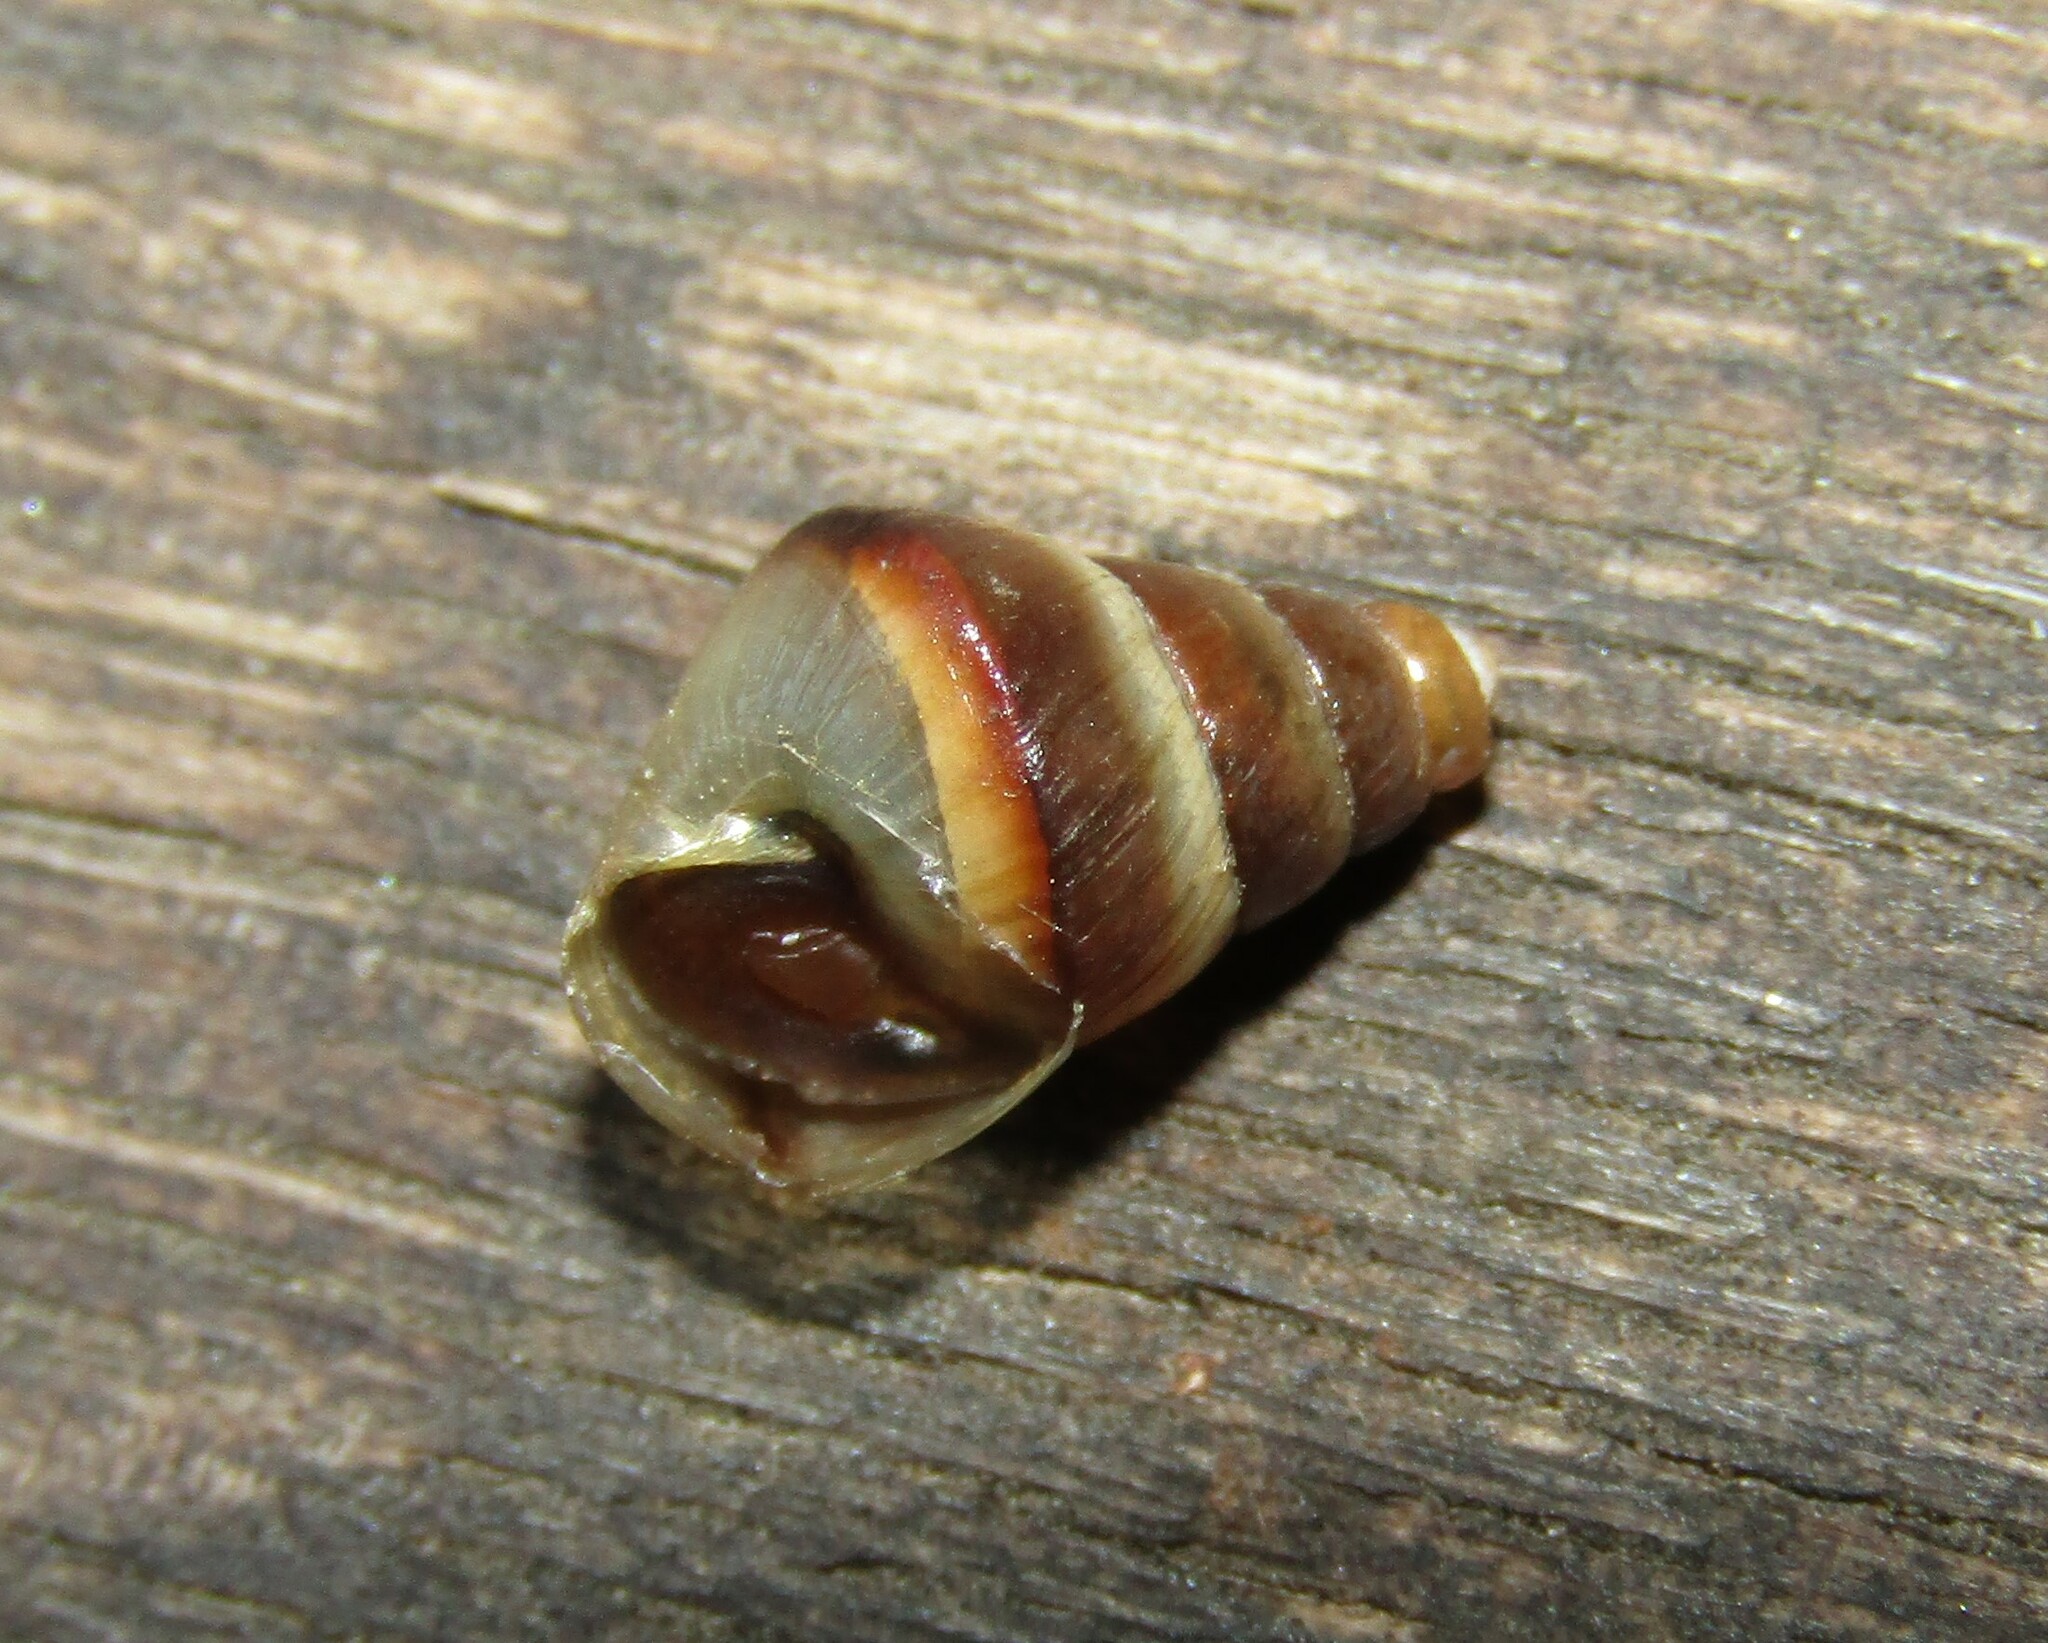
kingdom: Animalia
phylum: Mollusca
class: Gastropoda
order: Stylommatophora
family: Enidae
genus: Caucasicola
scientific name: Caucasicola raddei
